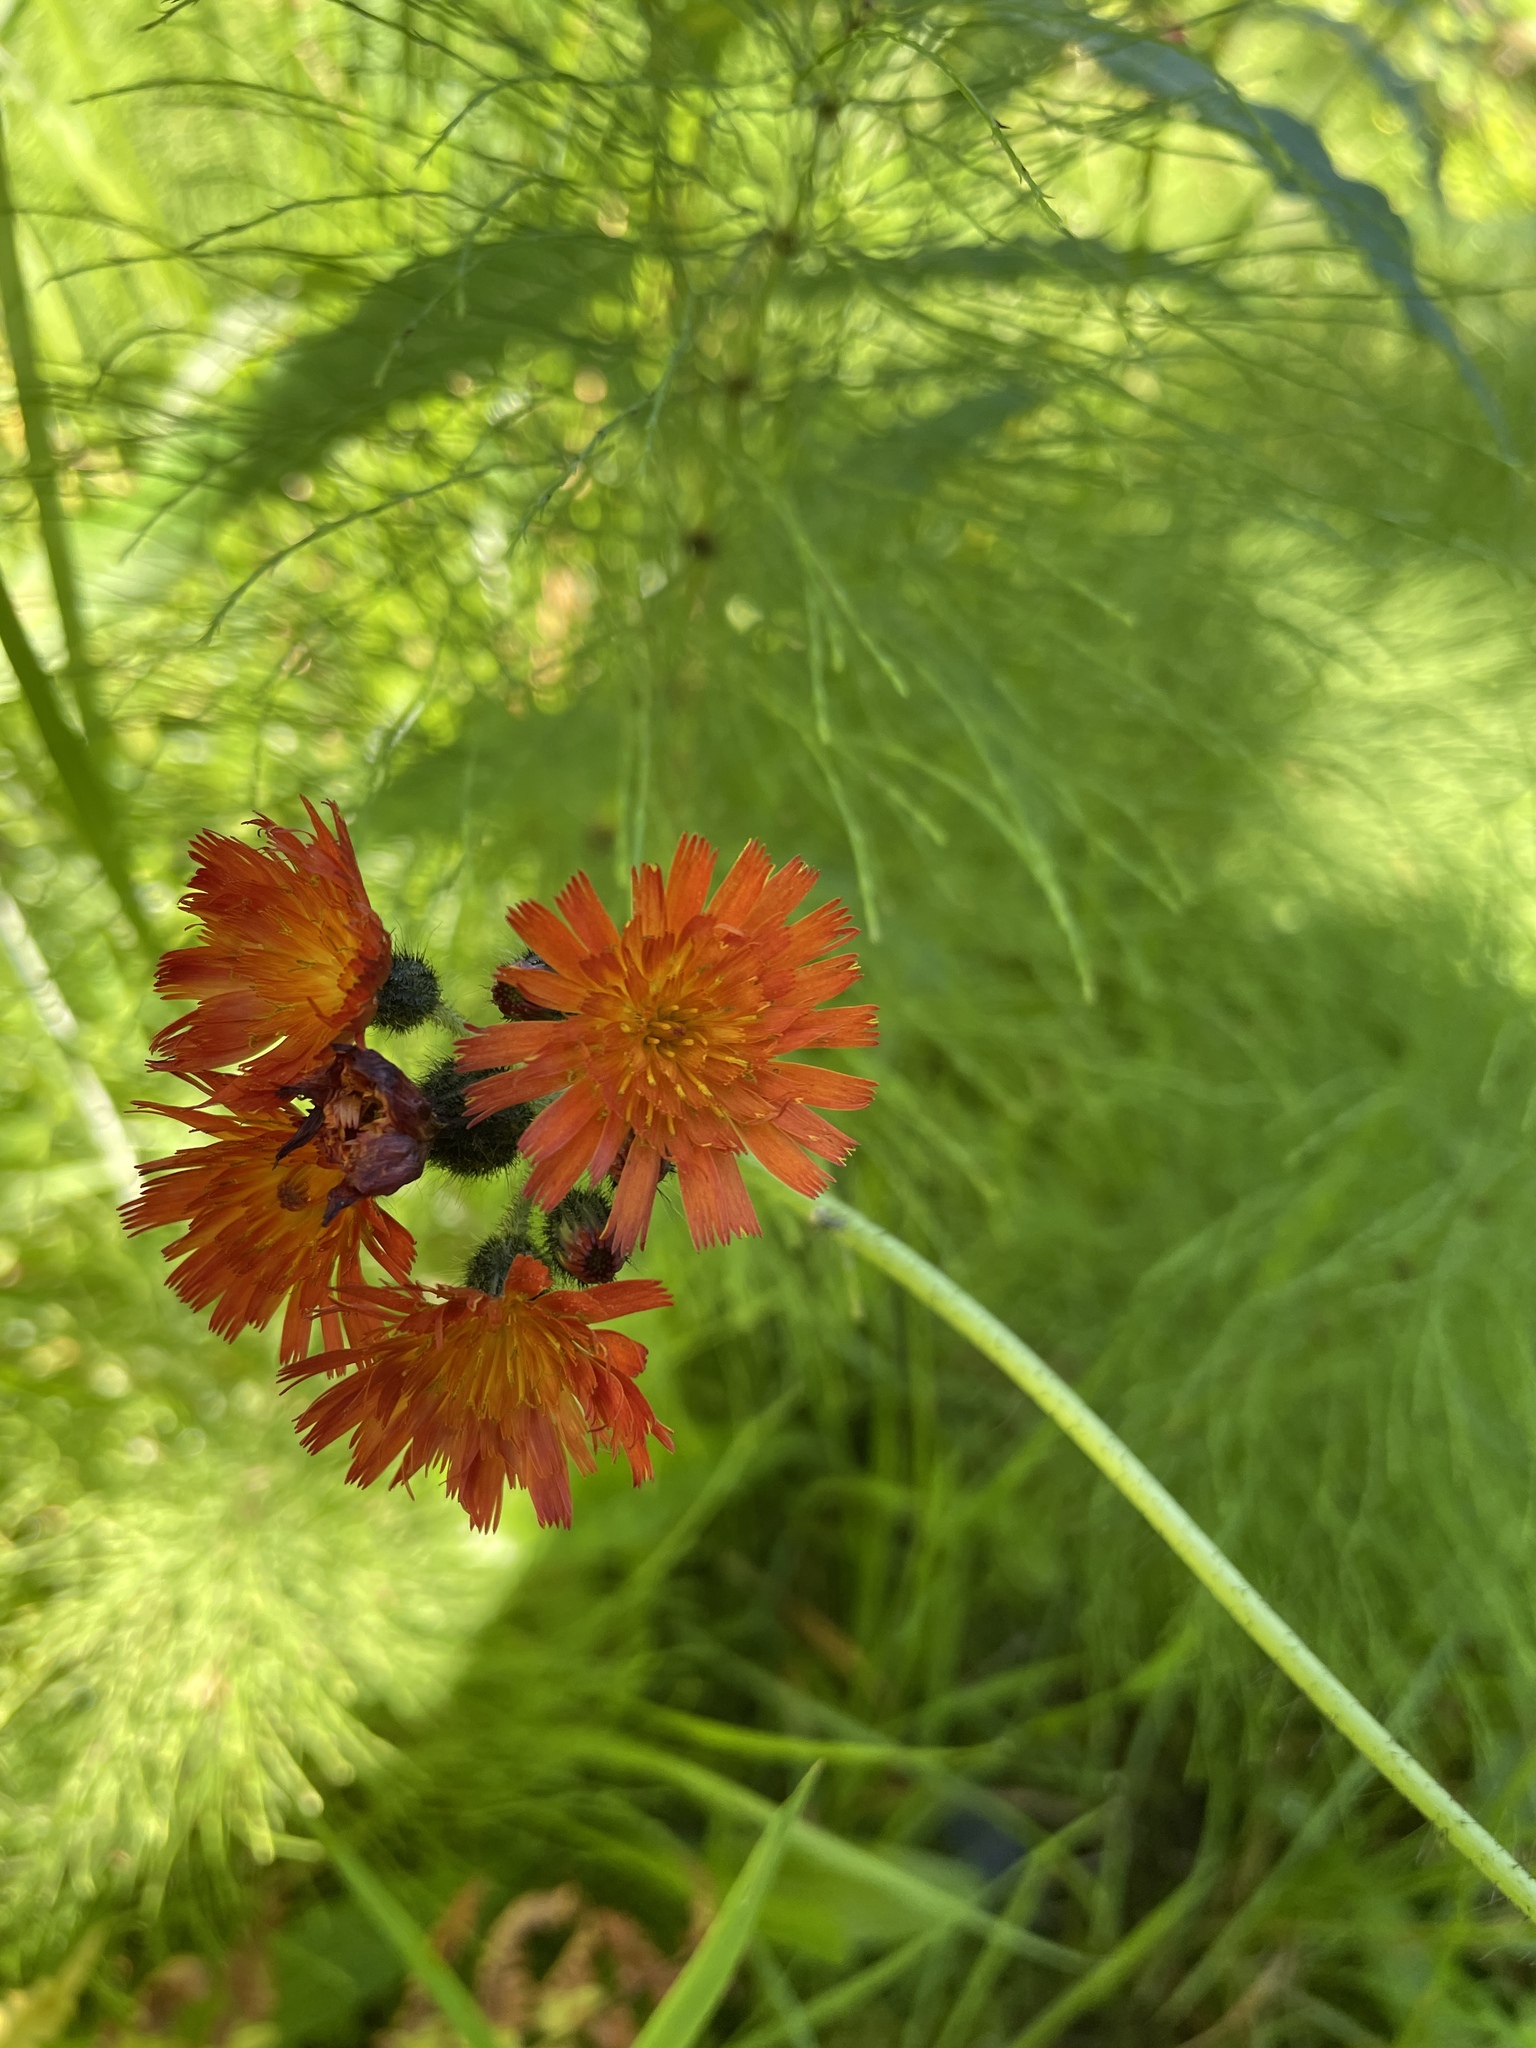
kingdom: Plantae
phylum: Tracheophyta
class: Magnoliopsida
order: Asterales
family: Asteraceae
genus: Pilosella
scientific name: Pilosella aurantiaca
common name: Fox-and-cubs
